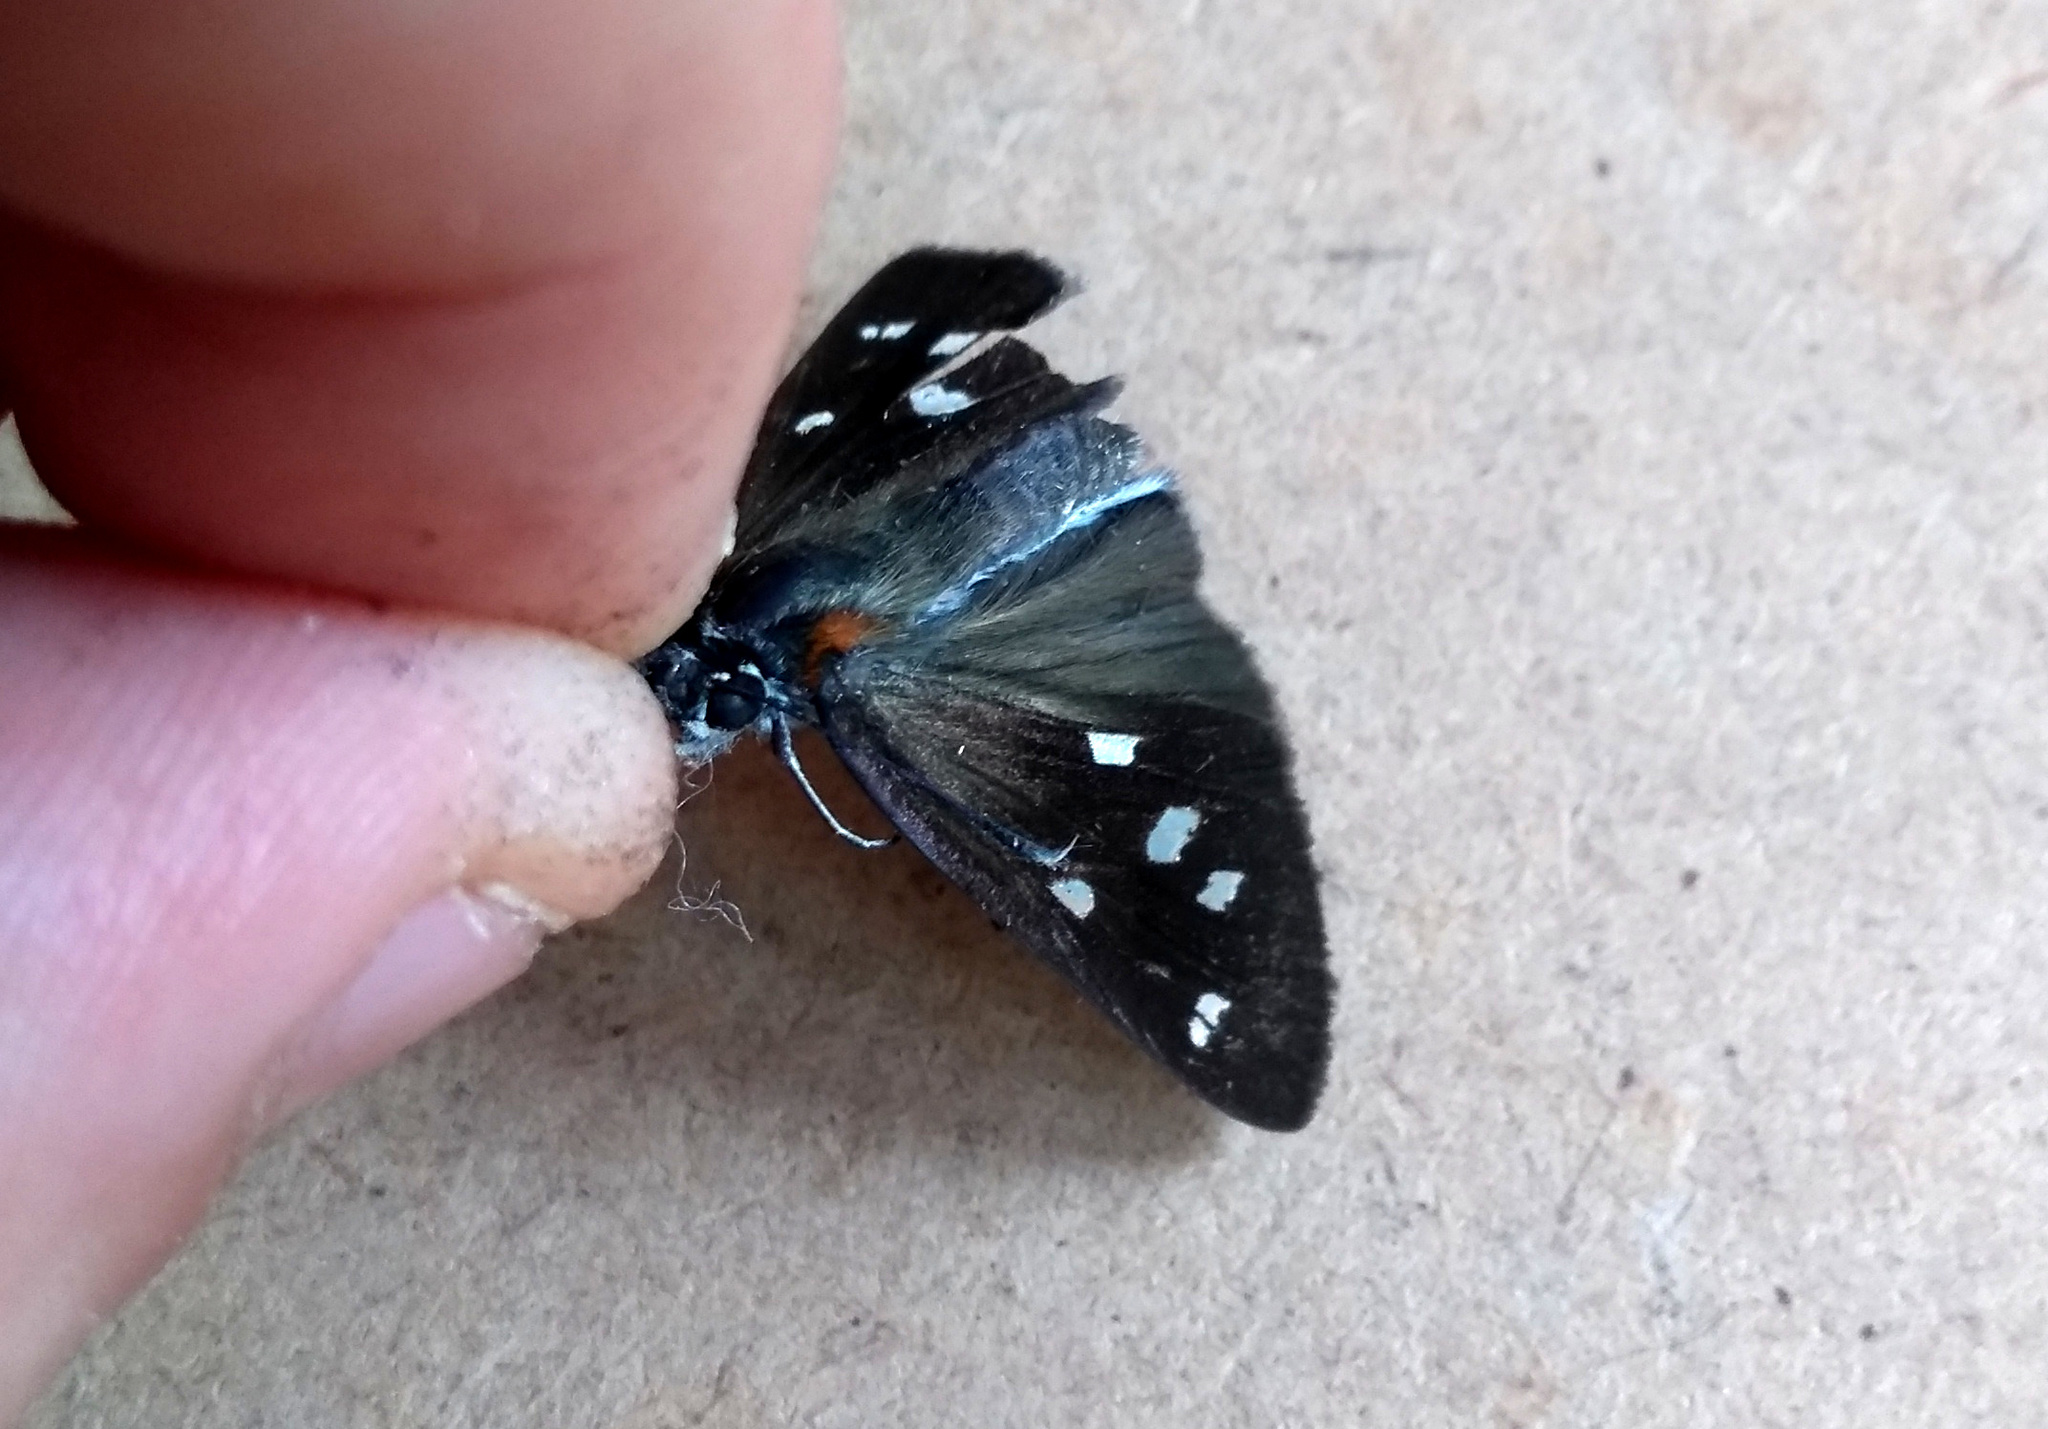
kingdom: Animalia
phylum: Arthropoda
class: Insecta
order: Lepidoptera
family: Hesperiidae
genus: Paracarystus
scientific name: Paracarystus hypargyra
